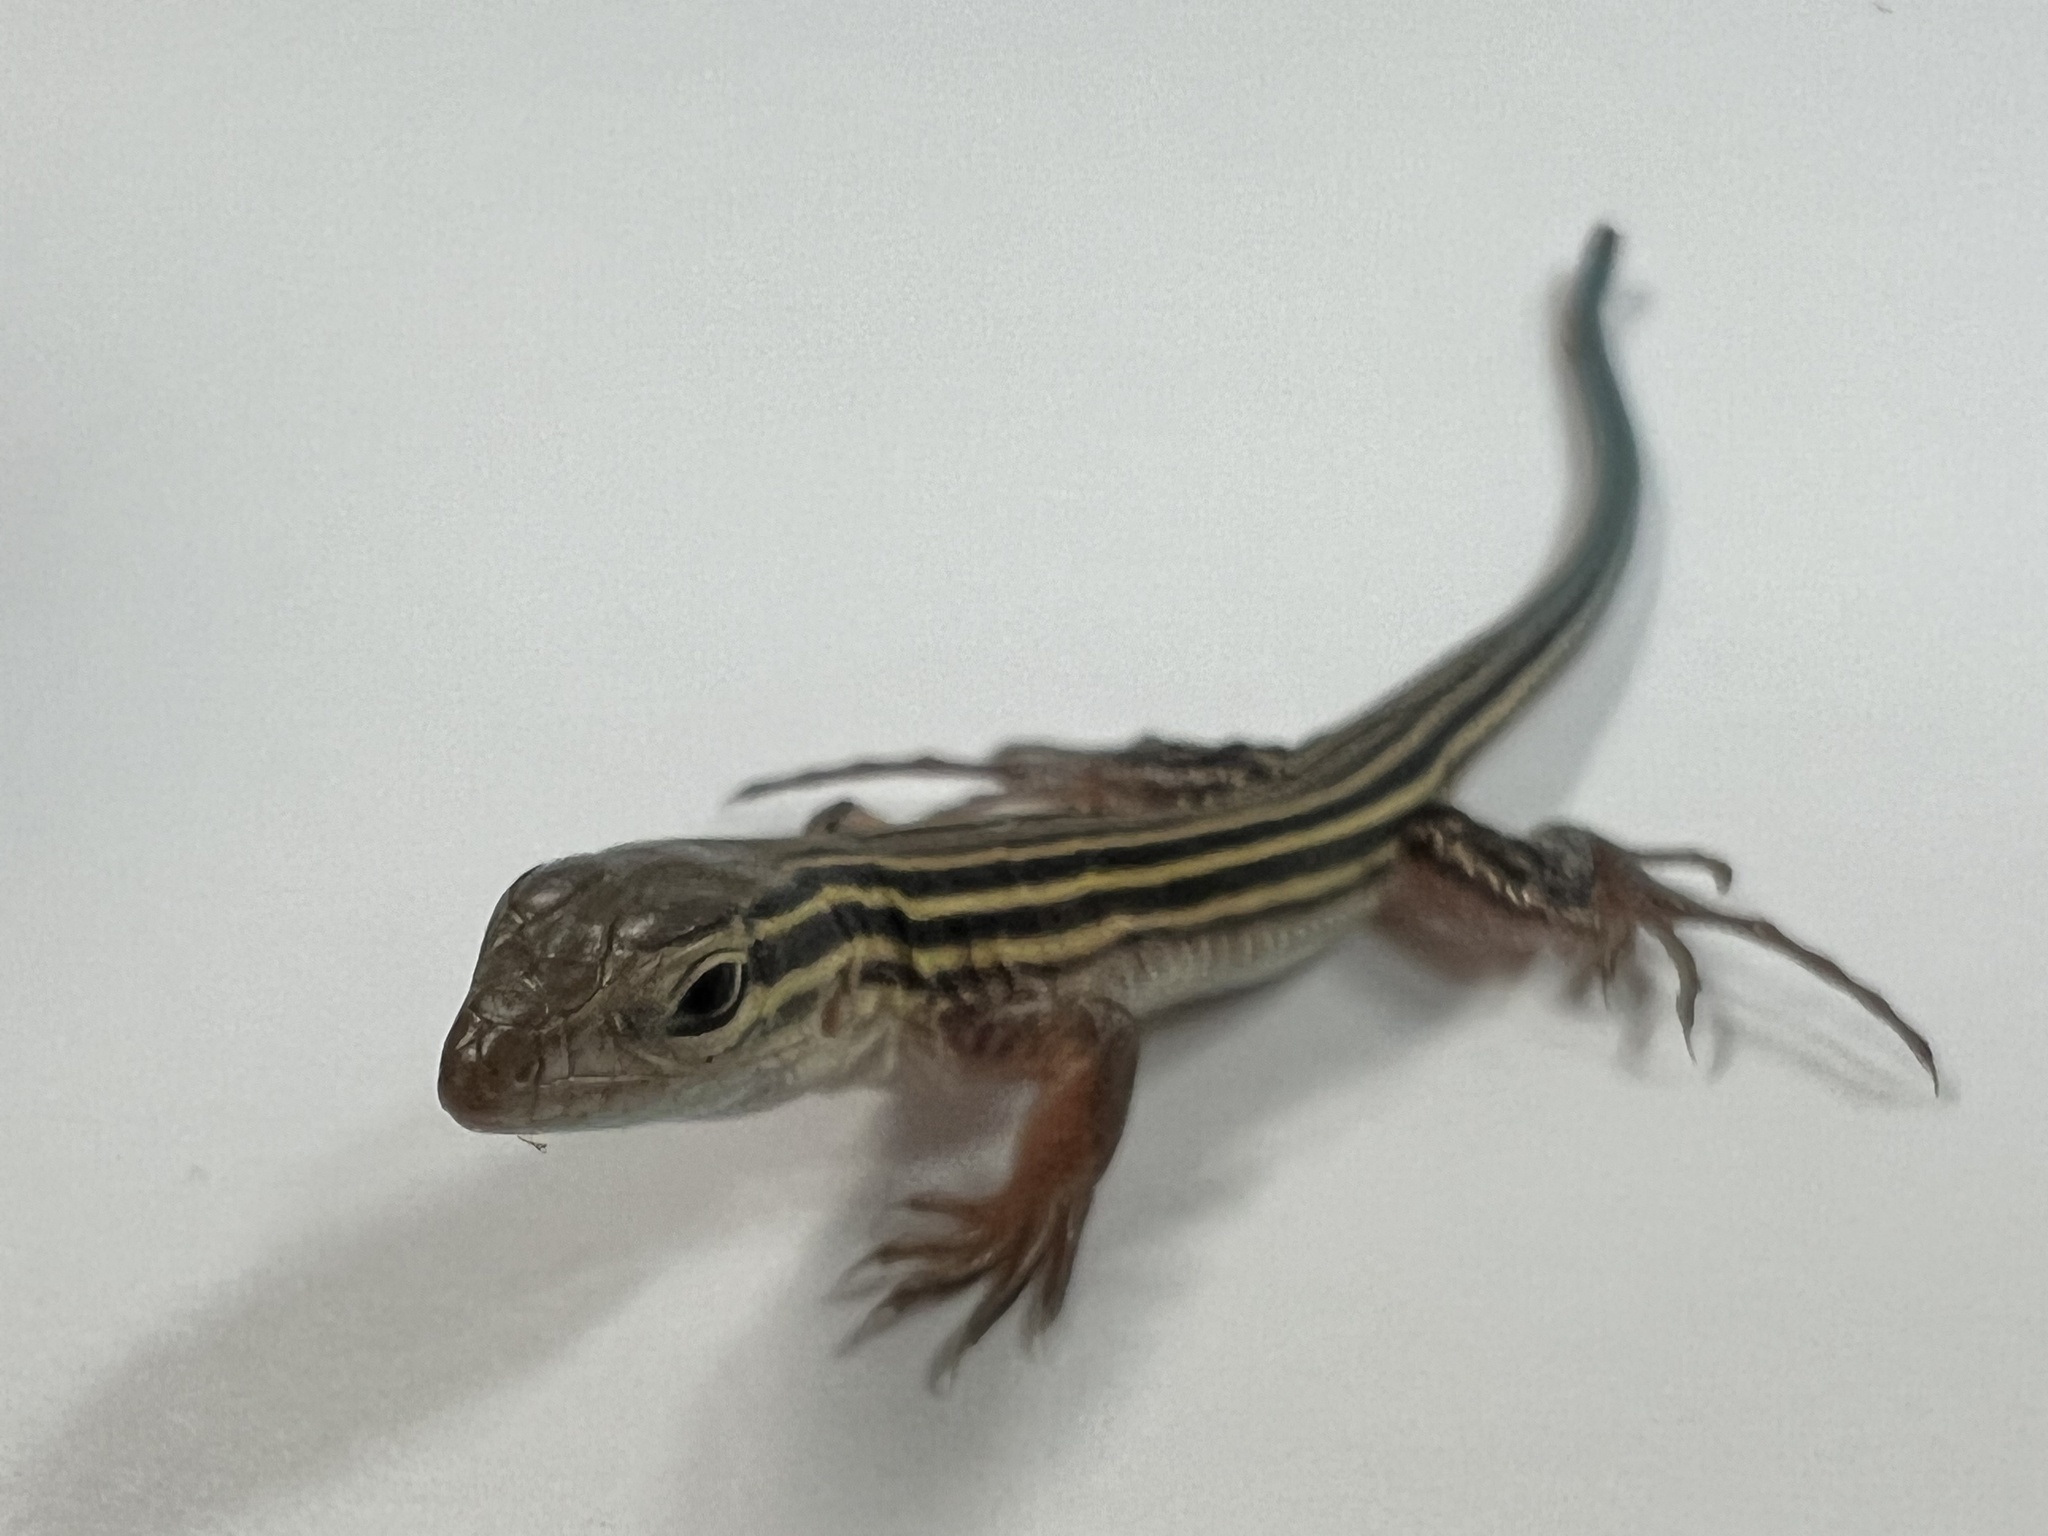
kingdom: Animalia
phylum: Chordata
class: Squamata
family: Teiidae
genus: Aspidoscelis
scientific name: Aspidoscelis sexlineatus
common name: Six-lined racerunner
